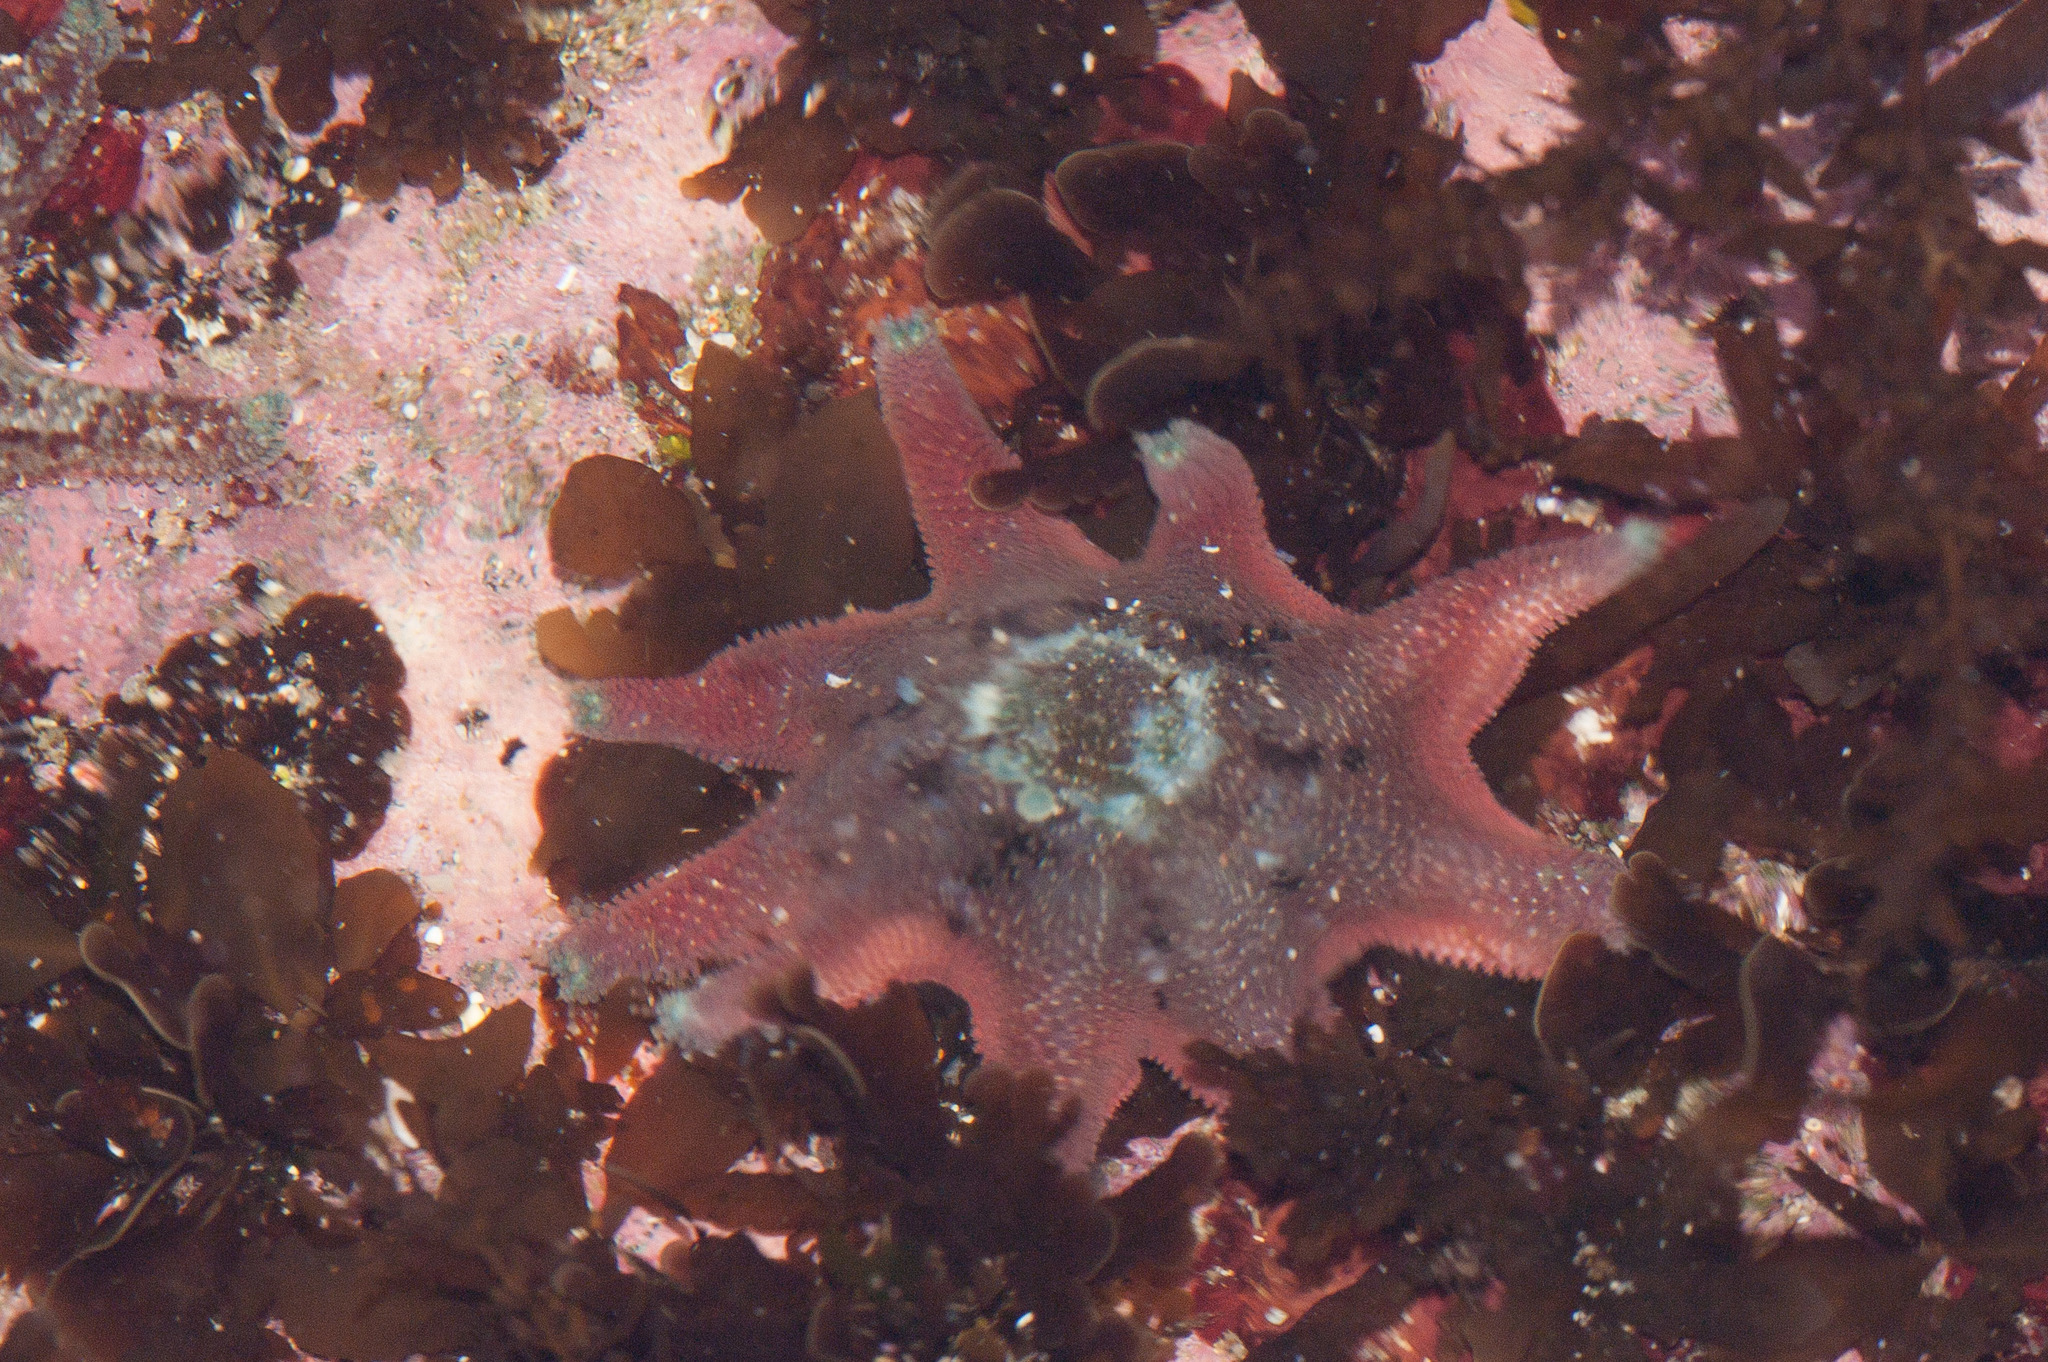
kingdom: Animalia
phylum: Echinodermata
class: Asteroidea
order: Valvatida
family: Asterinidae
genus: Meridiastra
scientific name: Meridiastra calcar
